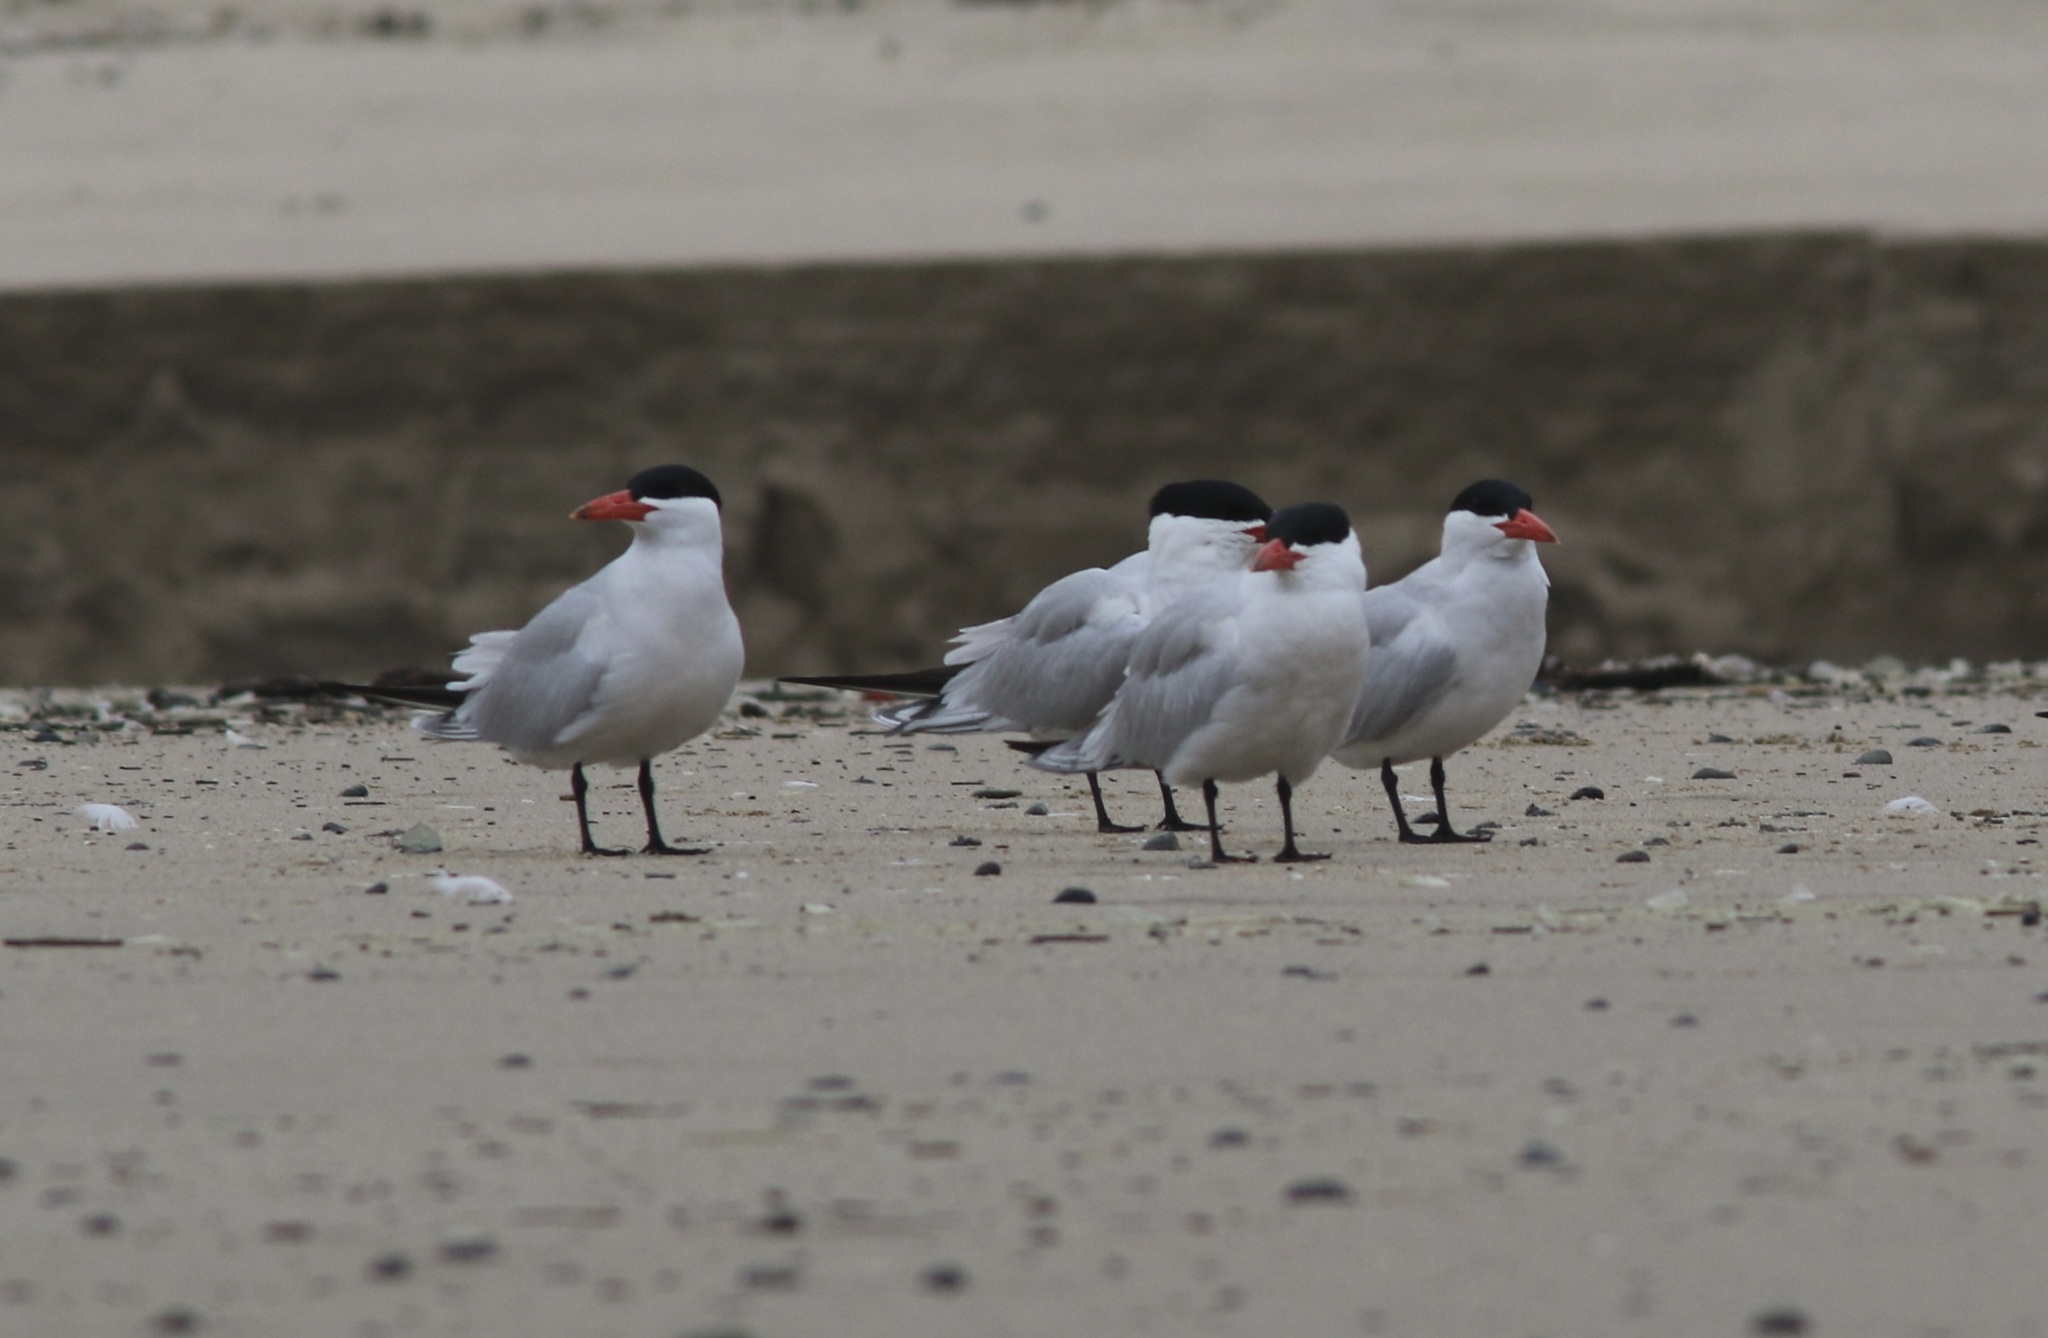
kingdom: Animalia
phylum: Chordata
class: Aves
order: Charadriiformes
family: Laridae
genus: Hydroprogne
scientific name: Hydroprogne caspia
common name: Caspian tern
